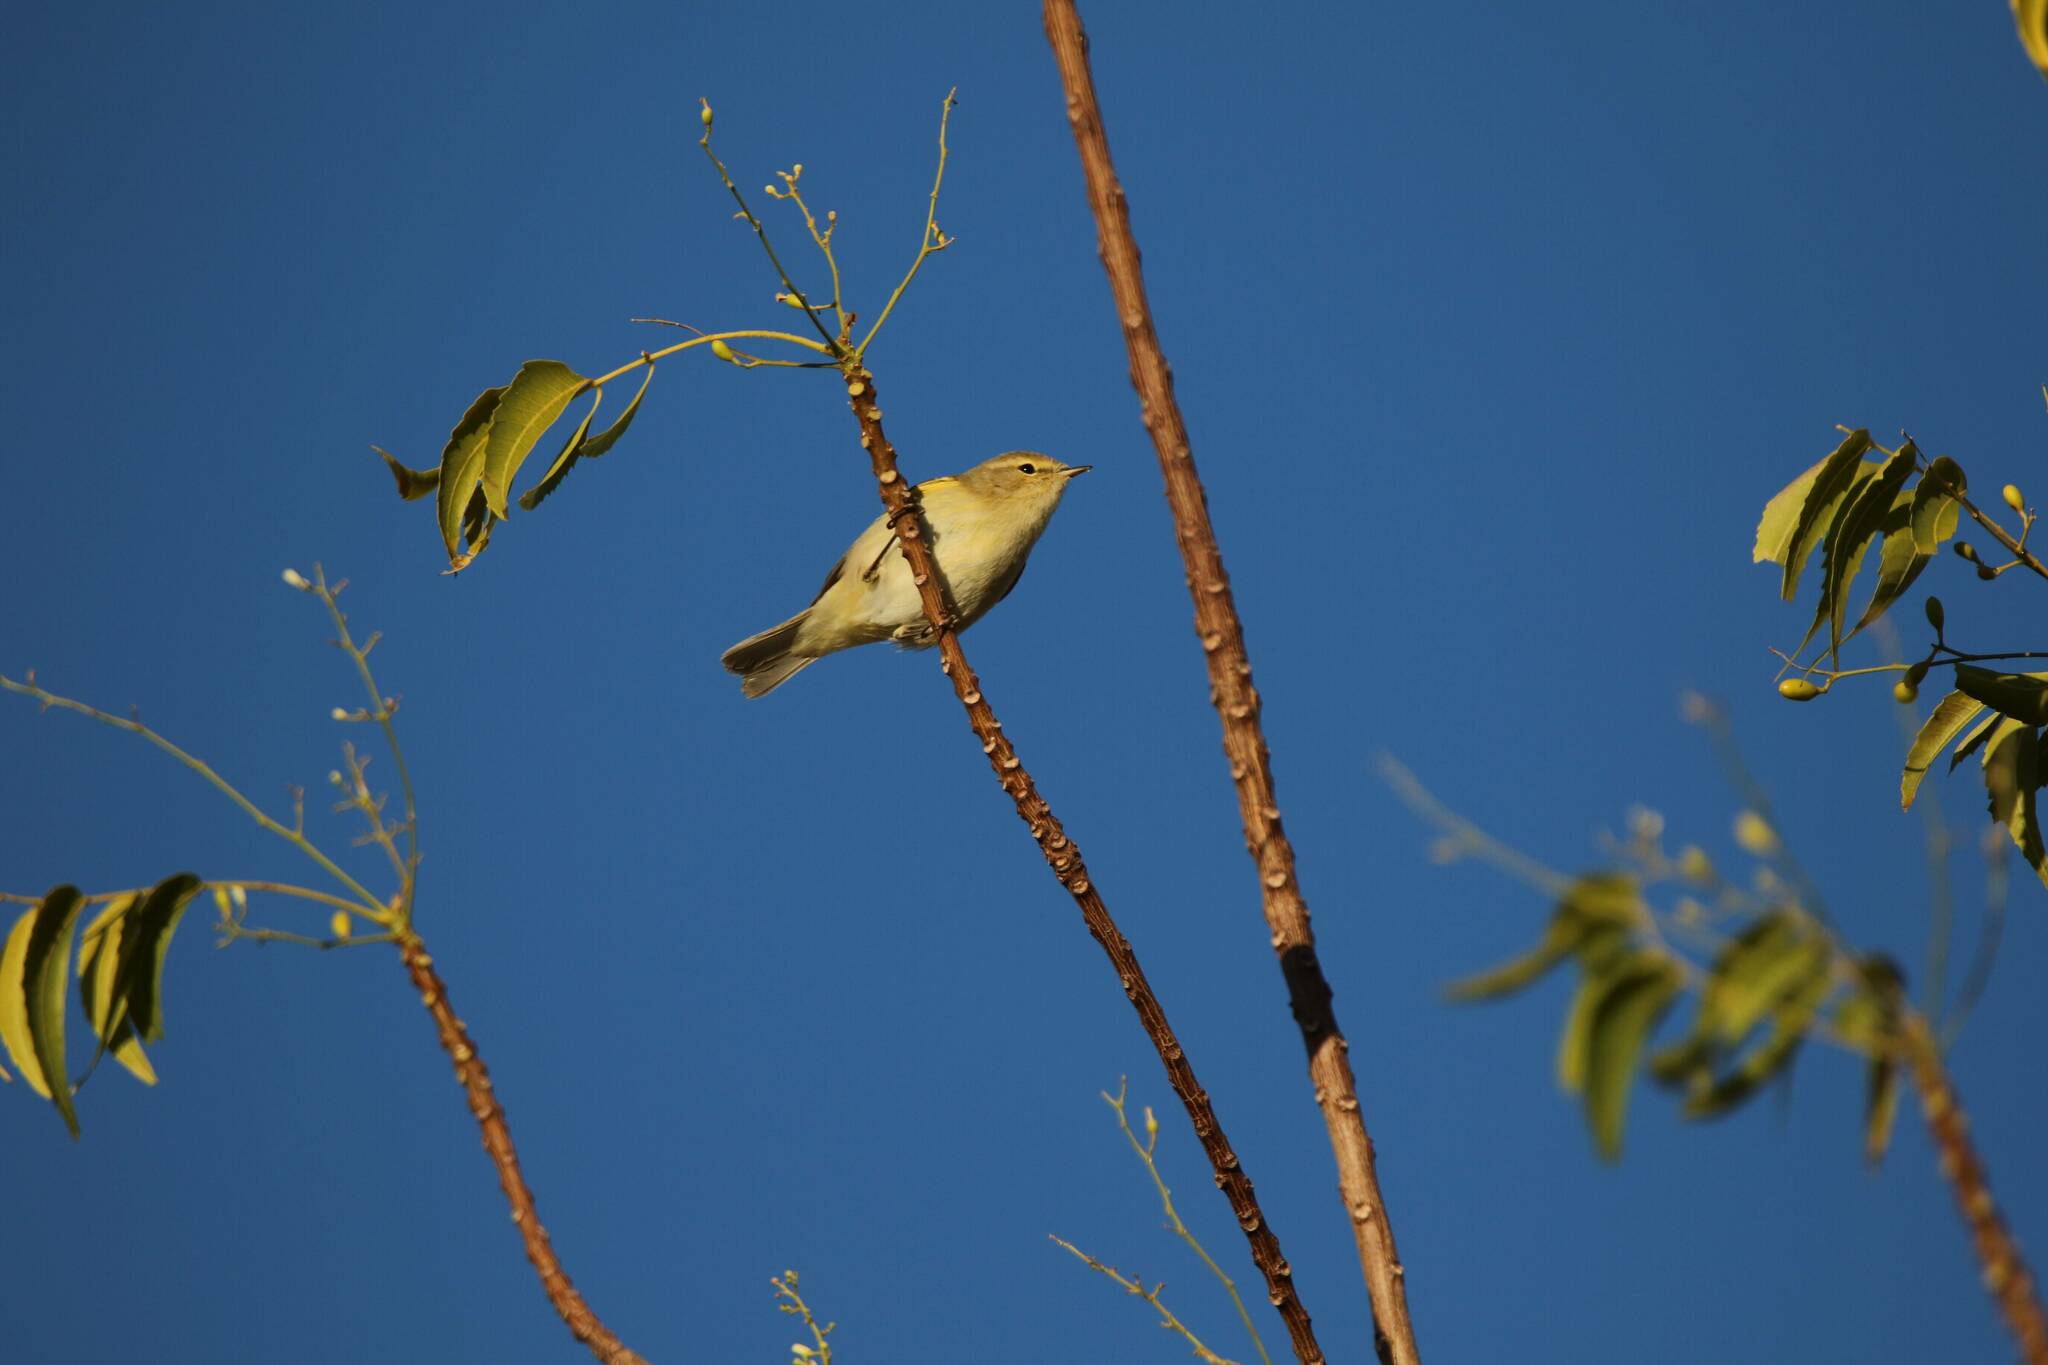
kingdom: Animalia
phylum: Chordata
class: Aves
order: Passeriformes
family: Phylloscopidae
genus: Phylloscopus
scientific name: Phylloscopus collybita
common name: Common chiffchaff
